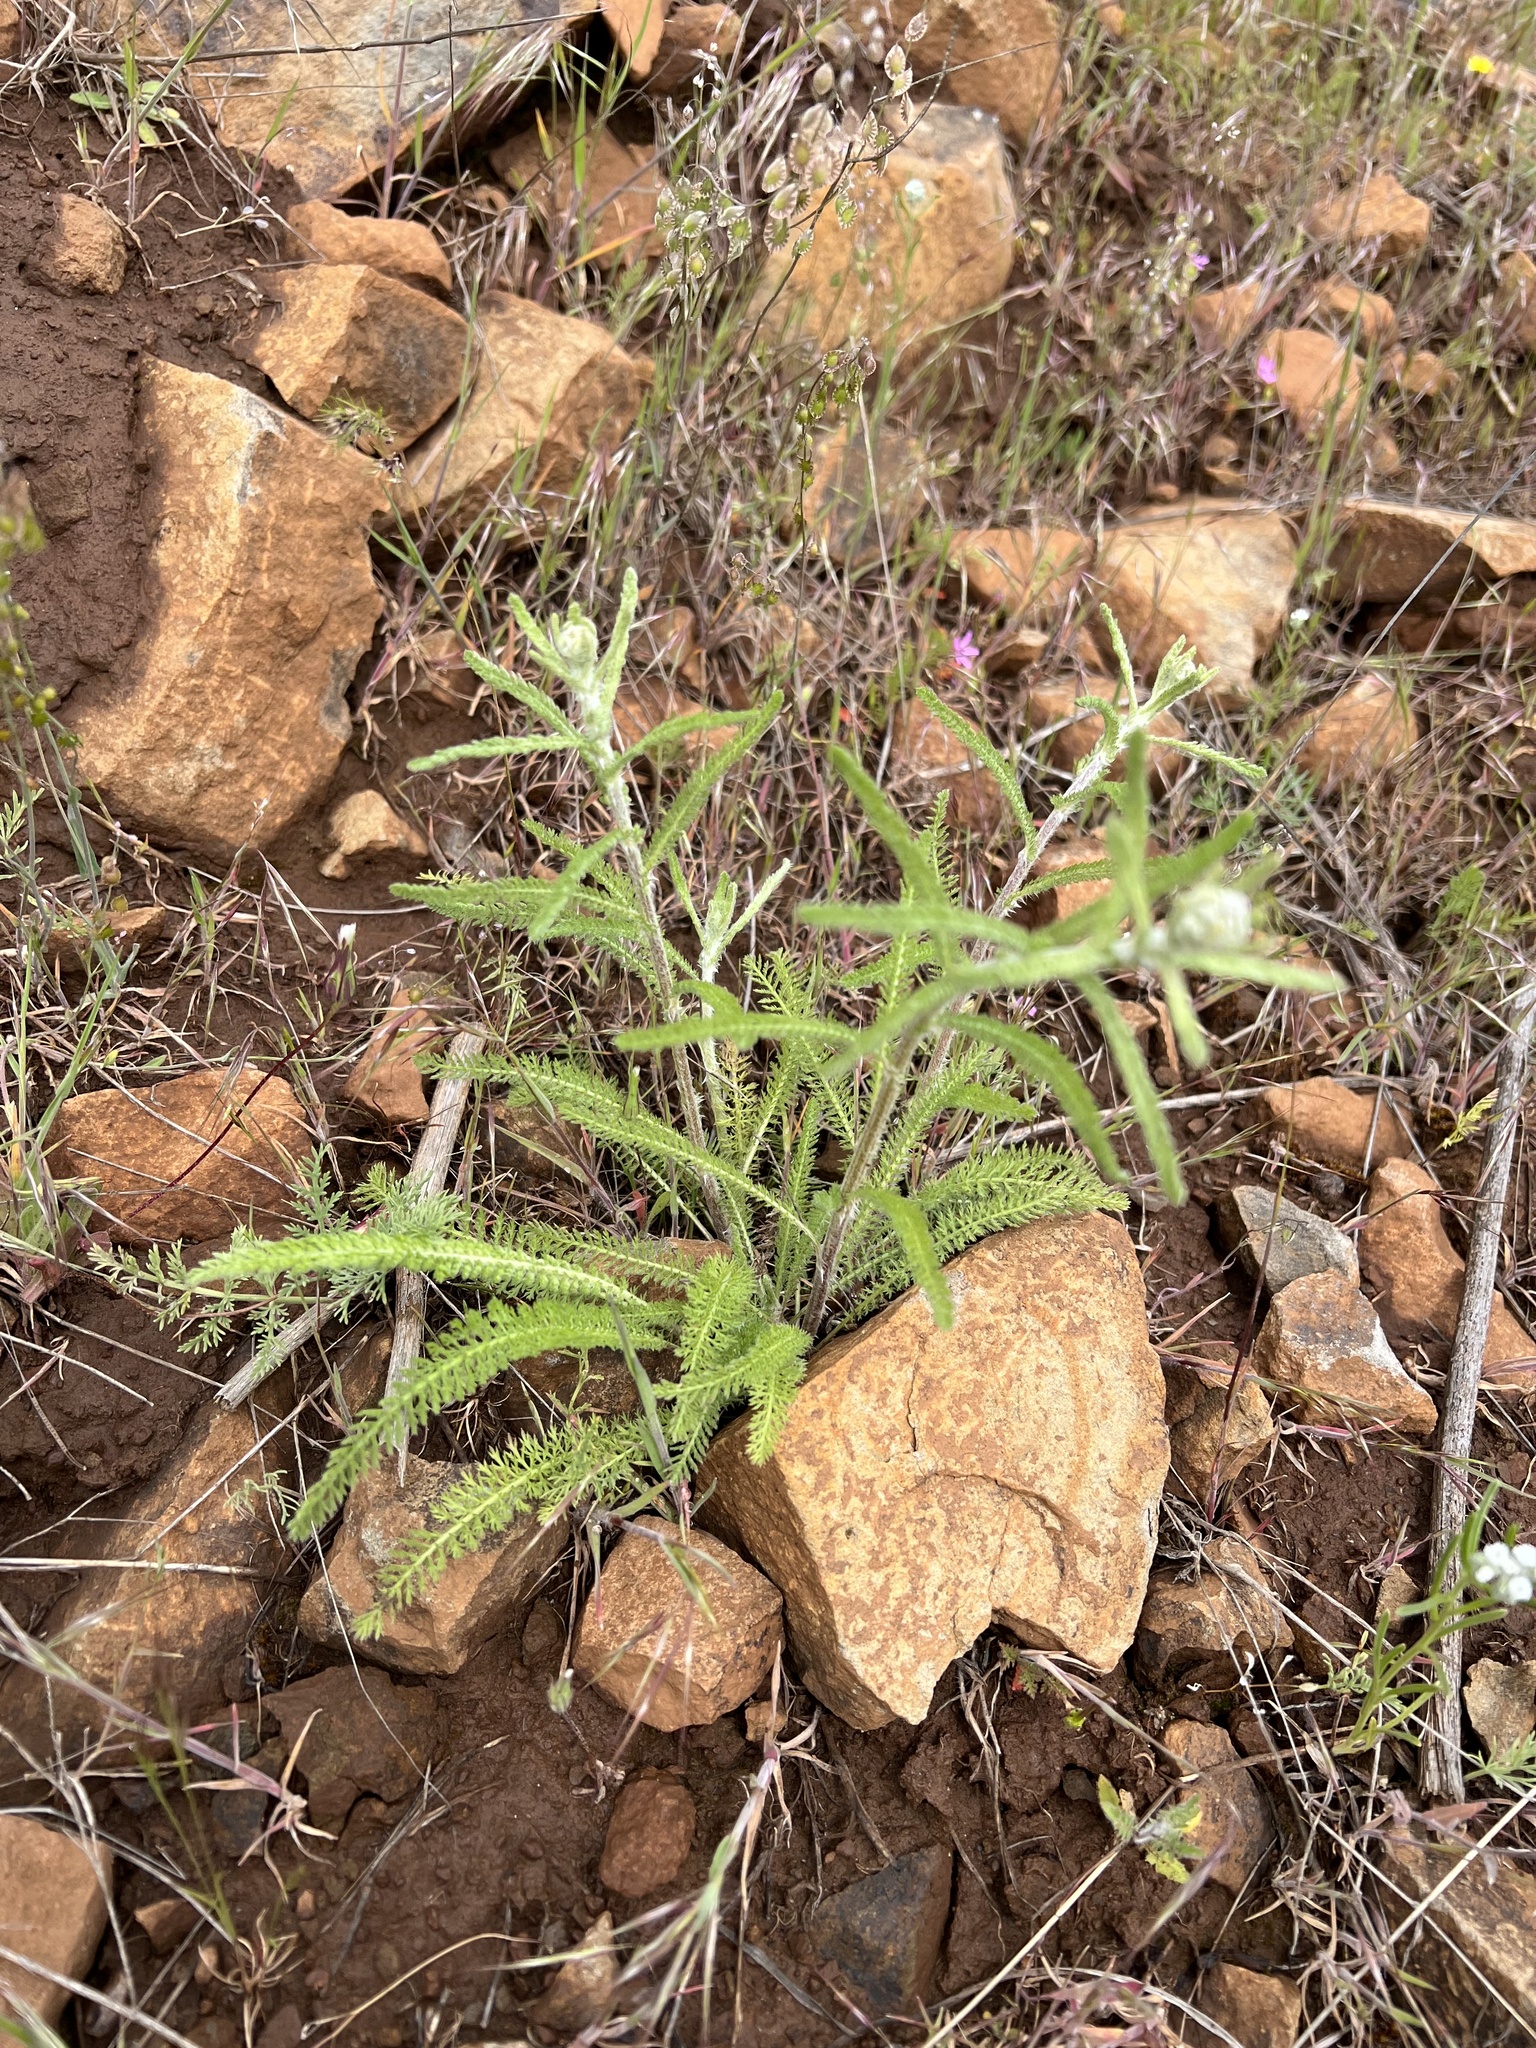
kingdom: Plantae
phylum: Tracheophyta
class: Magnoliopsida
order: Asterales
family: Asteraceae
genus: Achillea
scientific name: Achillea millefolium
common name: Yarrow
